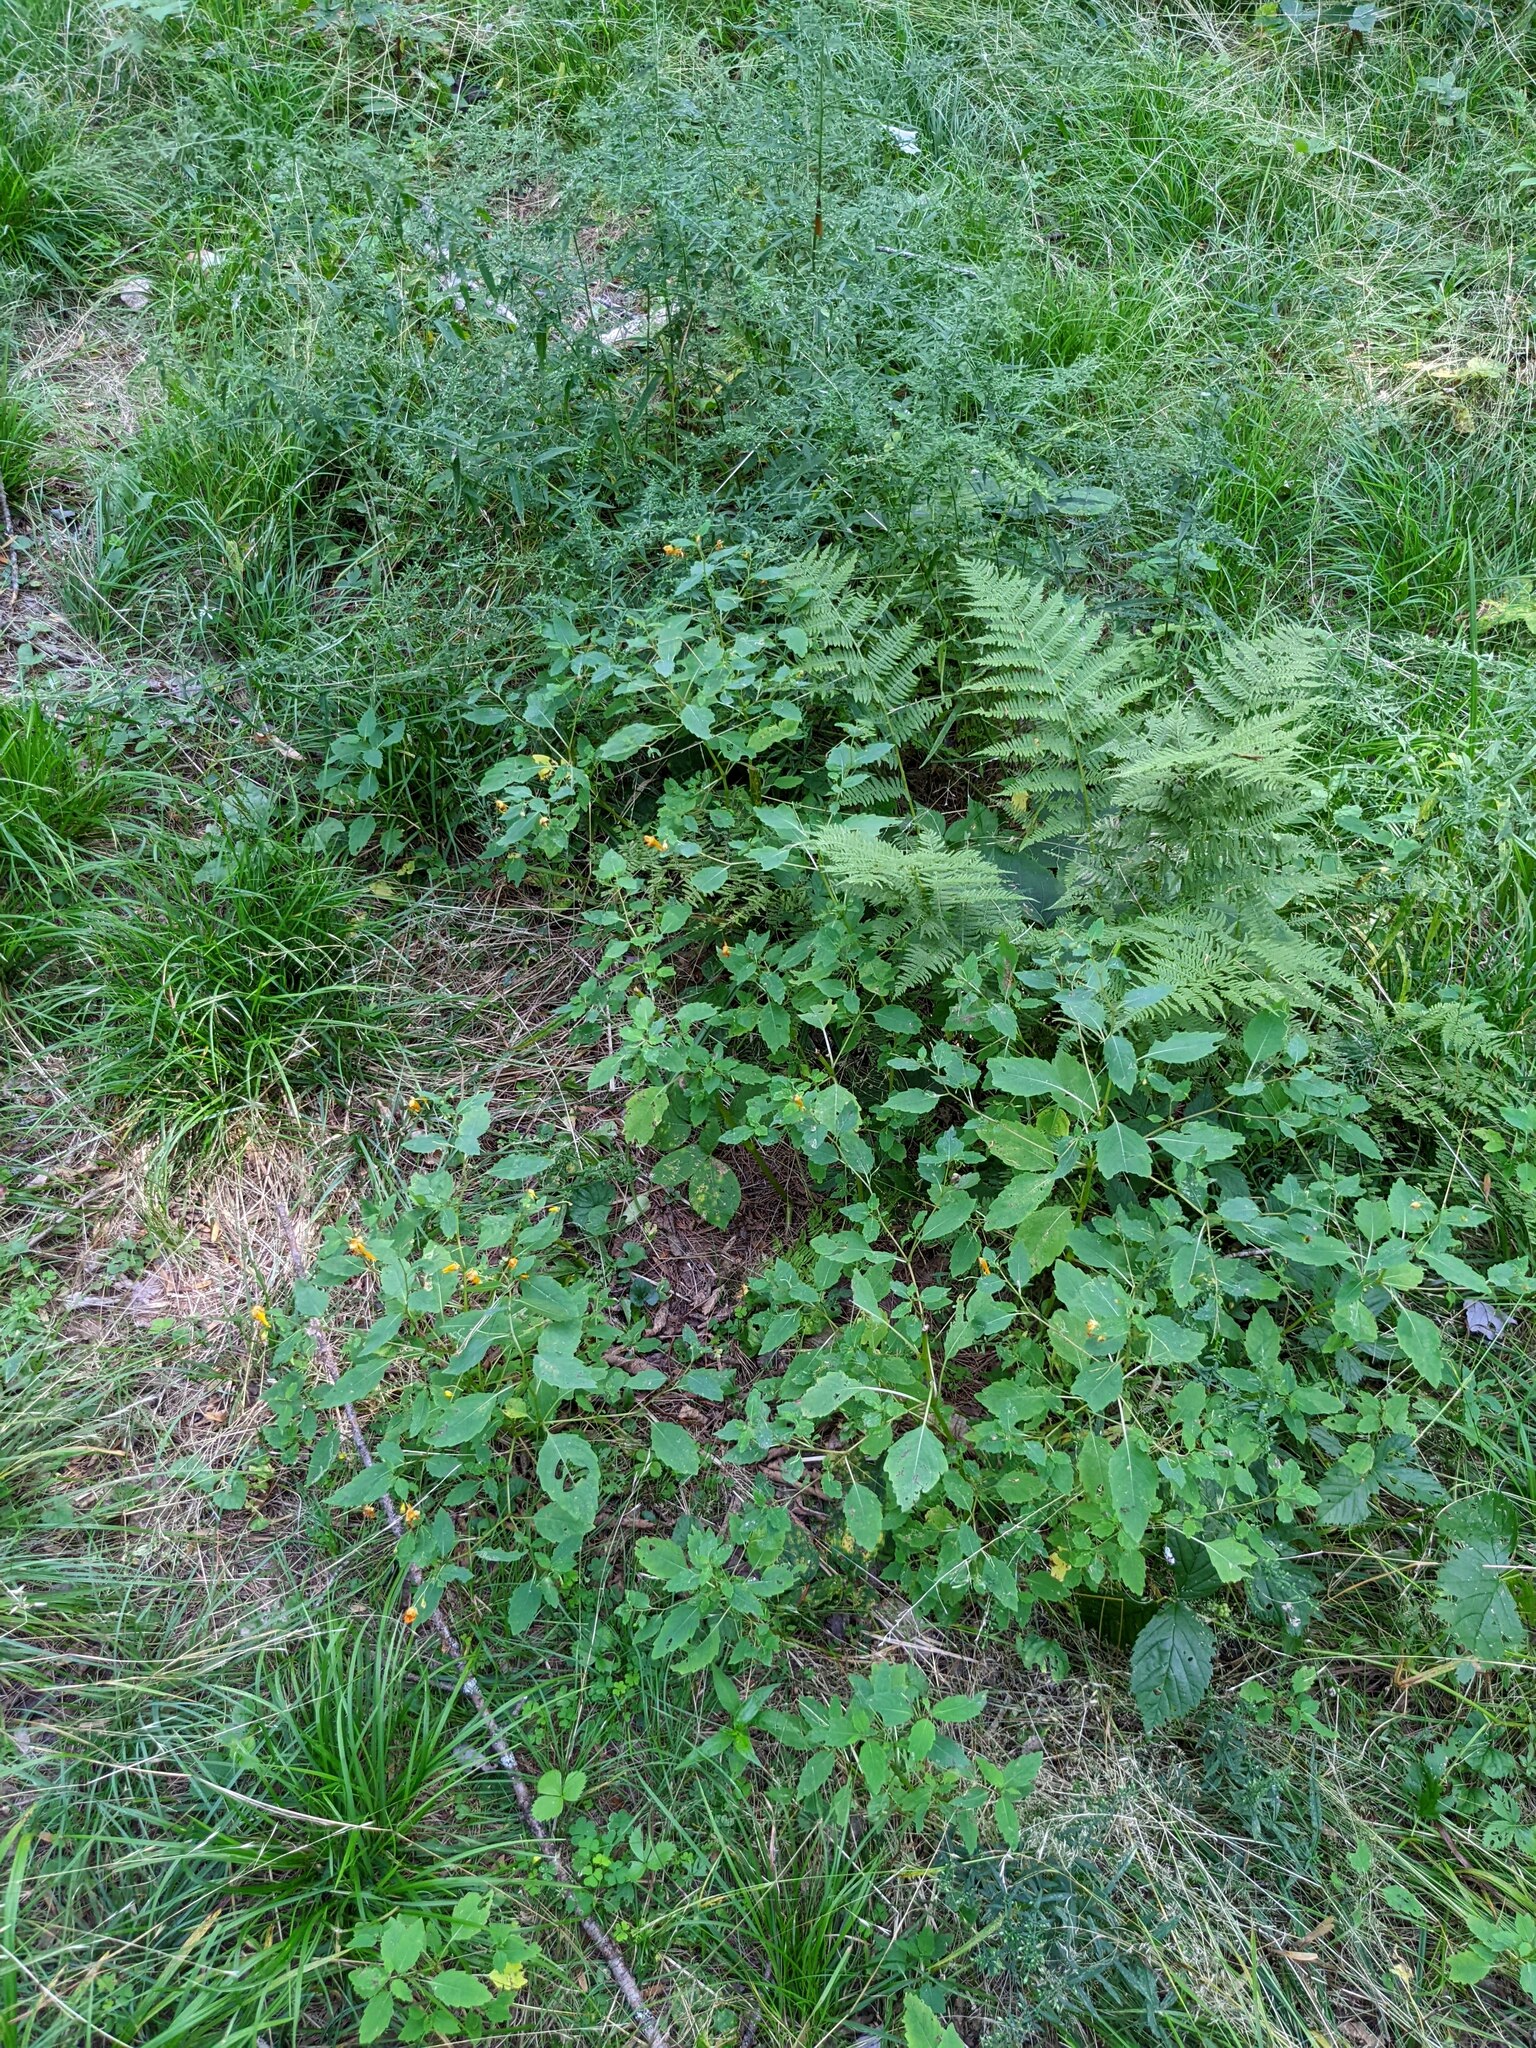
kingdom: Plantae
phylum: Tracheophyta
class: Magnoliopsida
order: Ericales
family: Balsaminaceae
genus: Impatiens
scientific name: Impatiens capensis
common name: Orange balsam
